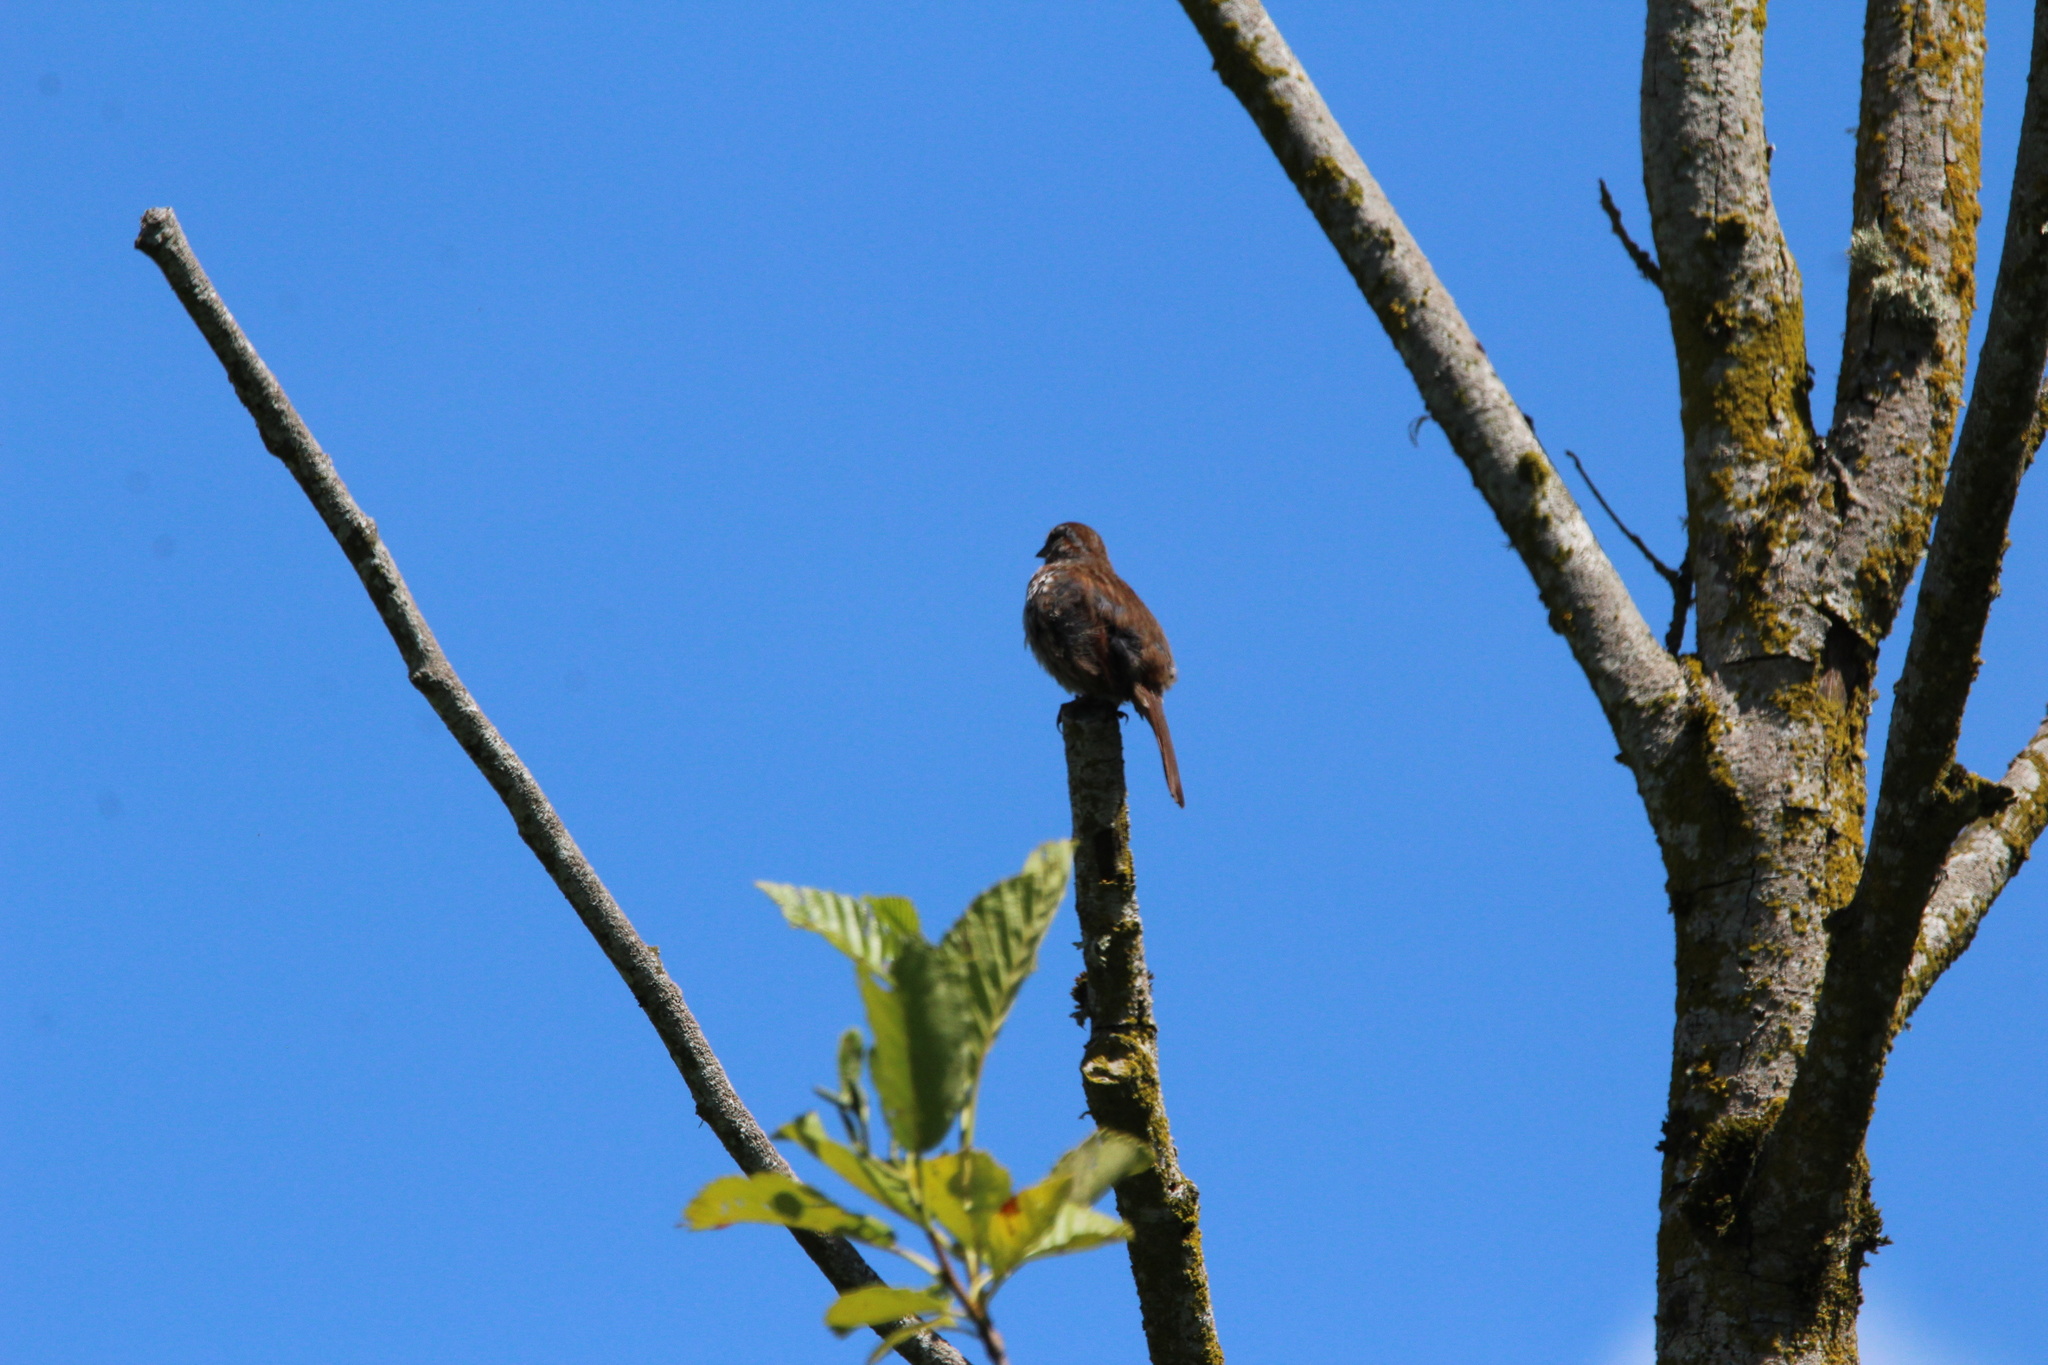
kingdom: Animalia
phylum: Chordata
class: Aves
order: Passeriformes
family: Passerellidae
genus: Melospiza
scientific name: Melospiza melodia
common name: Song sparrow
